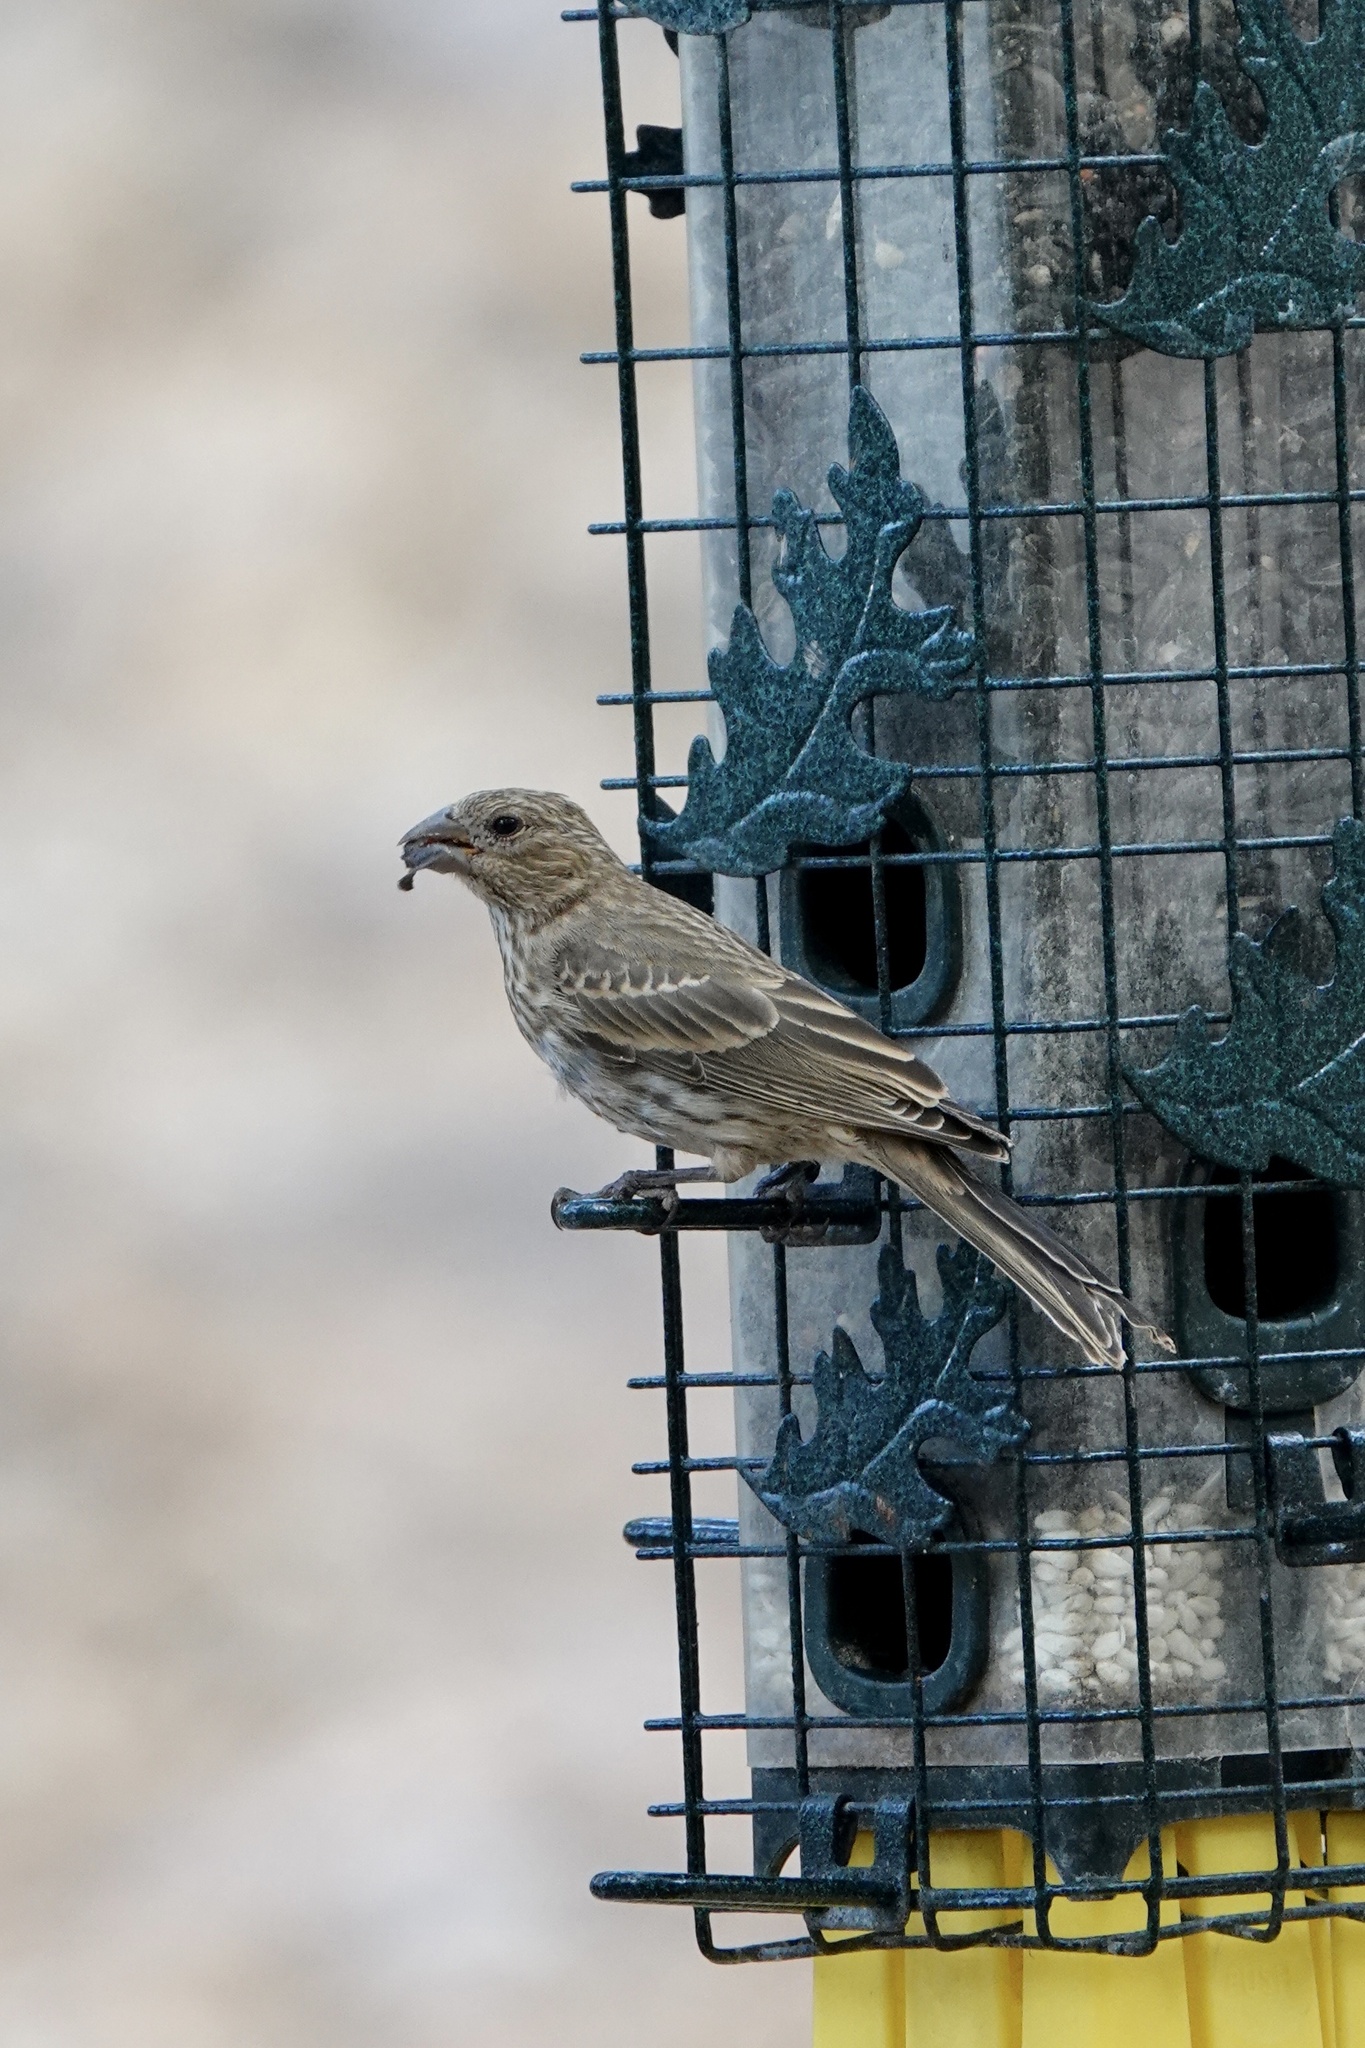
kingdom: Animalia
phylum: Chordata
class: Aves
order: Passeriformes
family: Fringillidae
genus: Haemorhous
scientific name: Haemorhous mexicanus
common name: House finch
